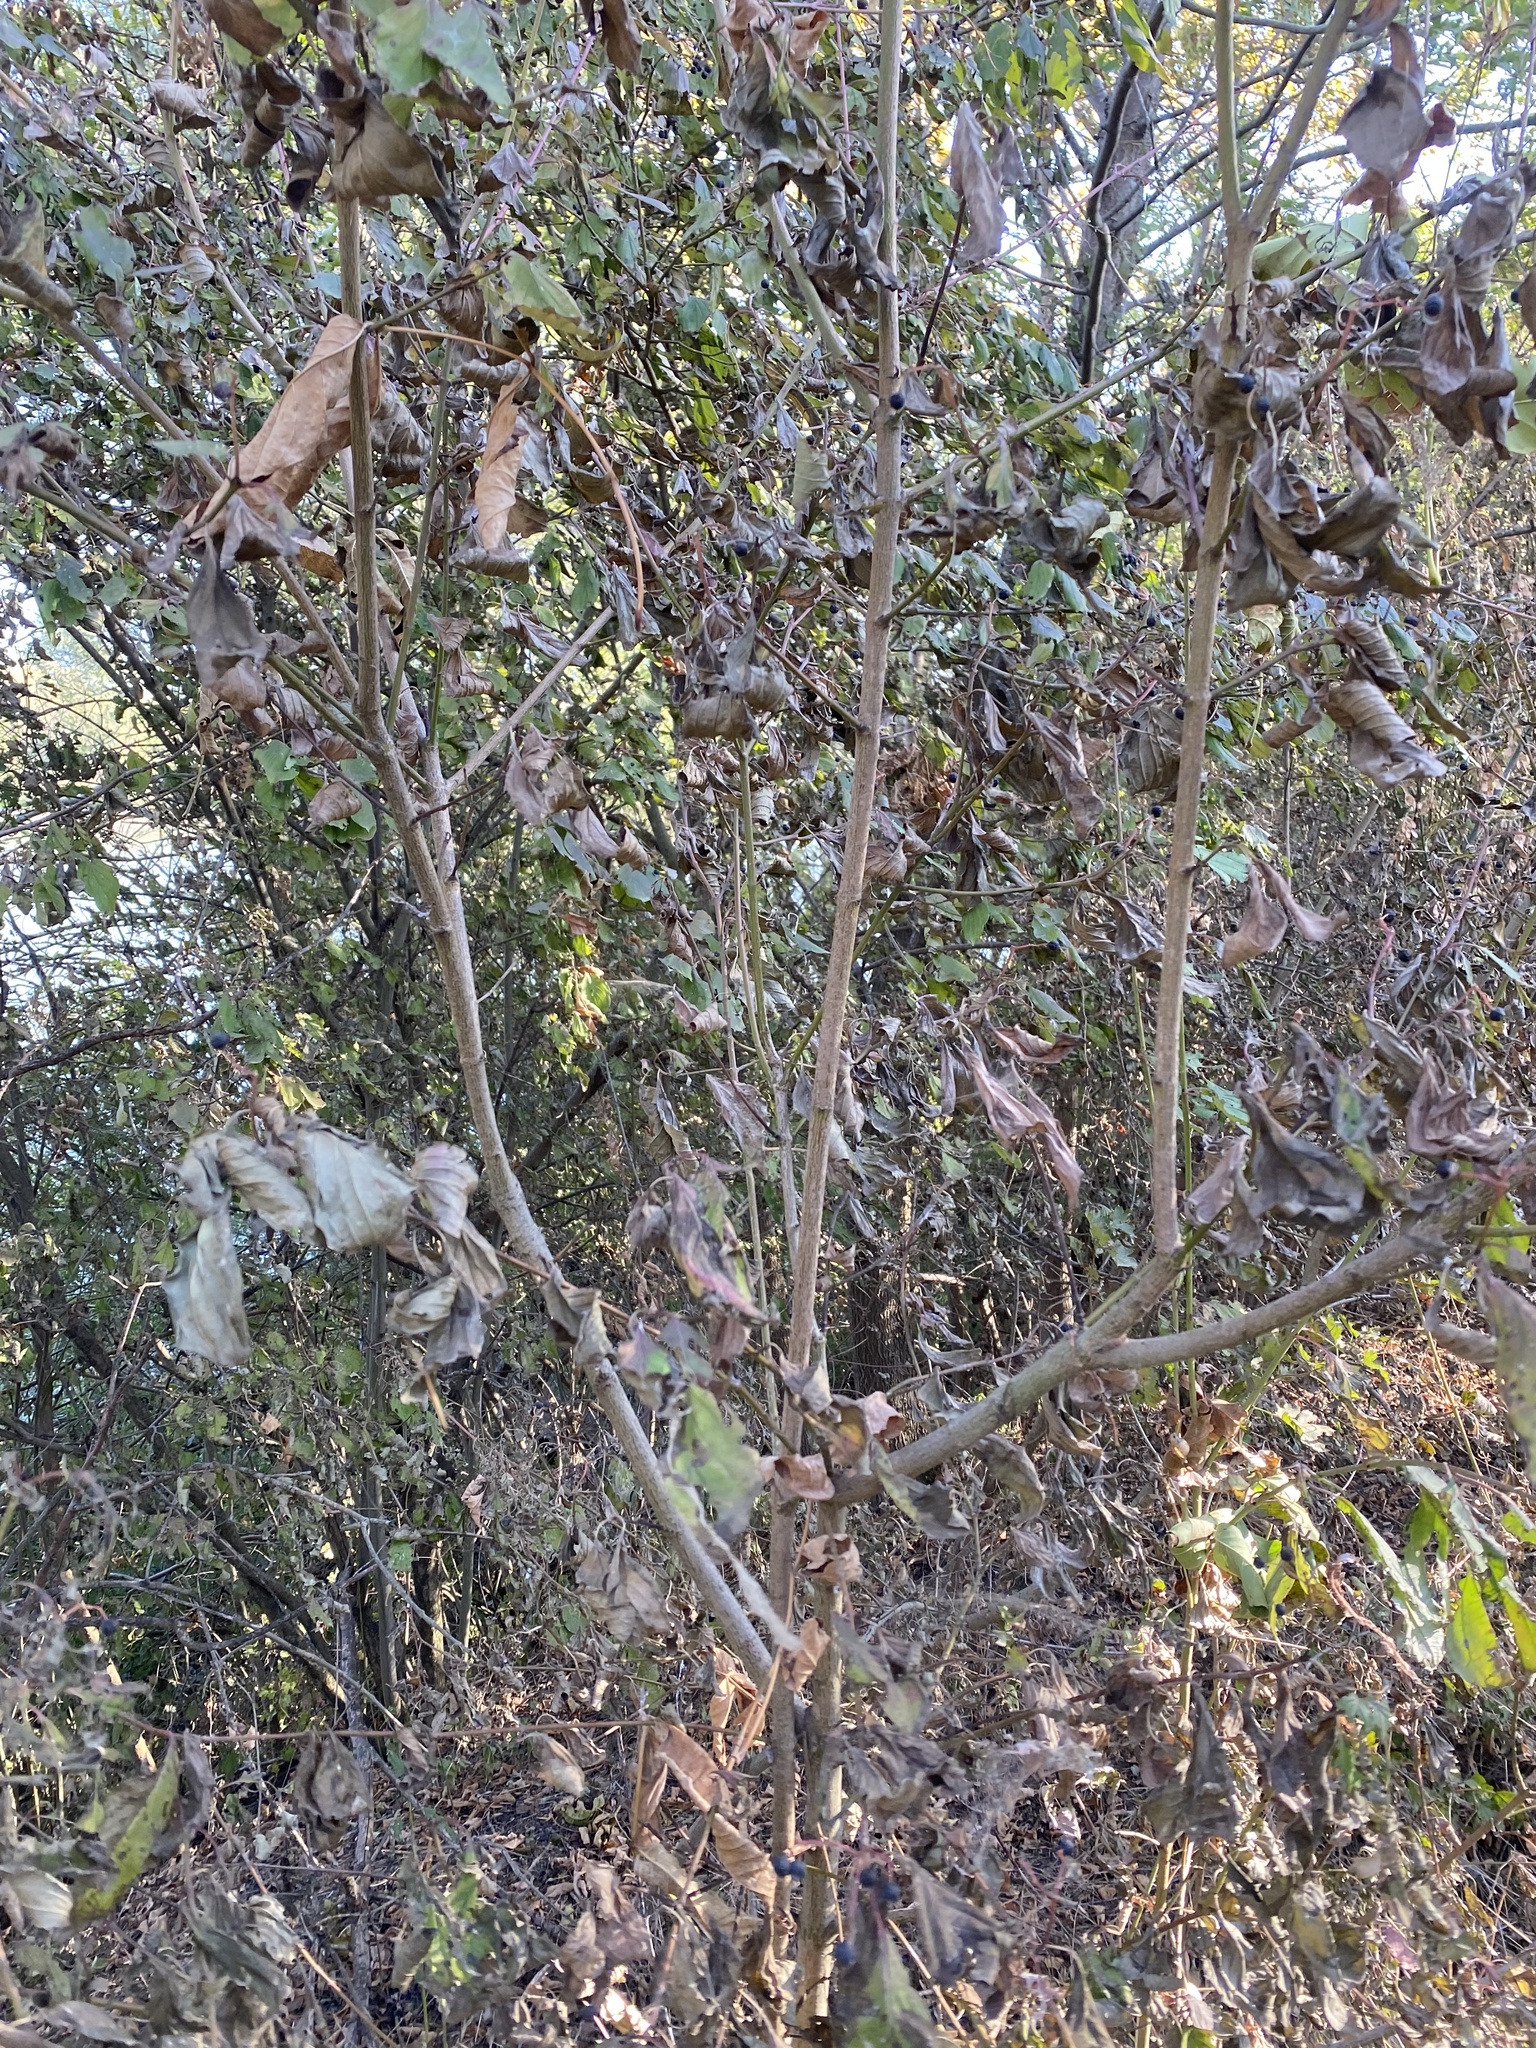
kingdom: Plantae
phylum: Tracheophyta
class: Magnoliopsida
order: Cornales
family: Cornaceae
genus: Cornus
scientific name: Cornus sanguinea
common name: Dogwood
